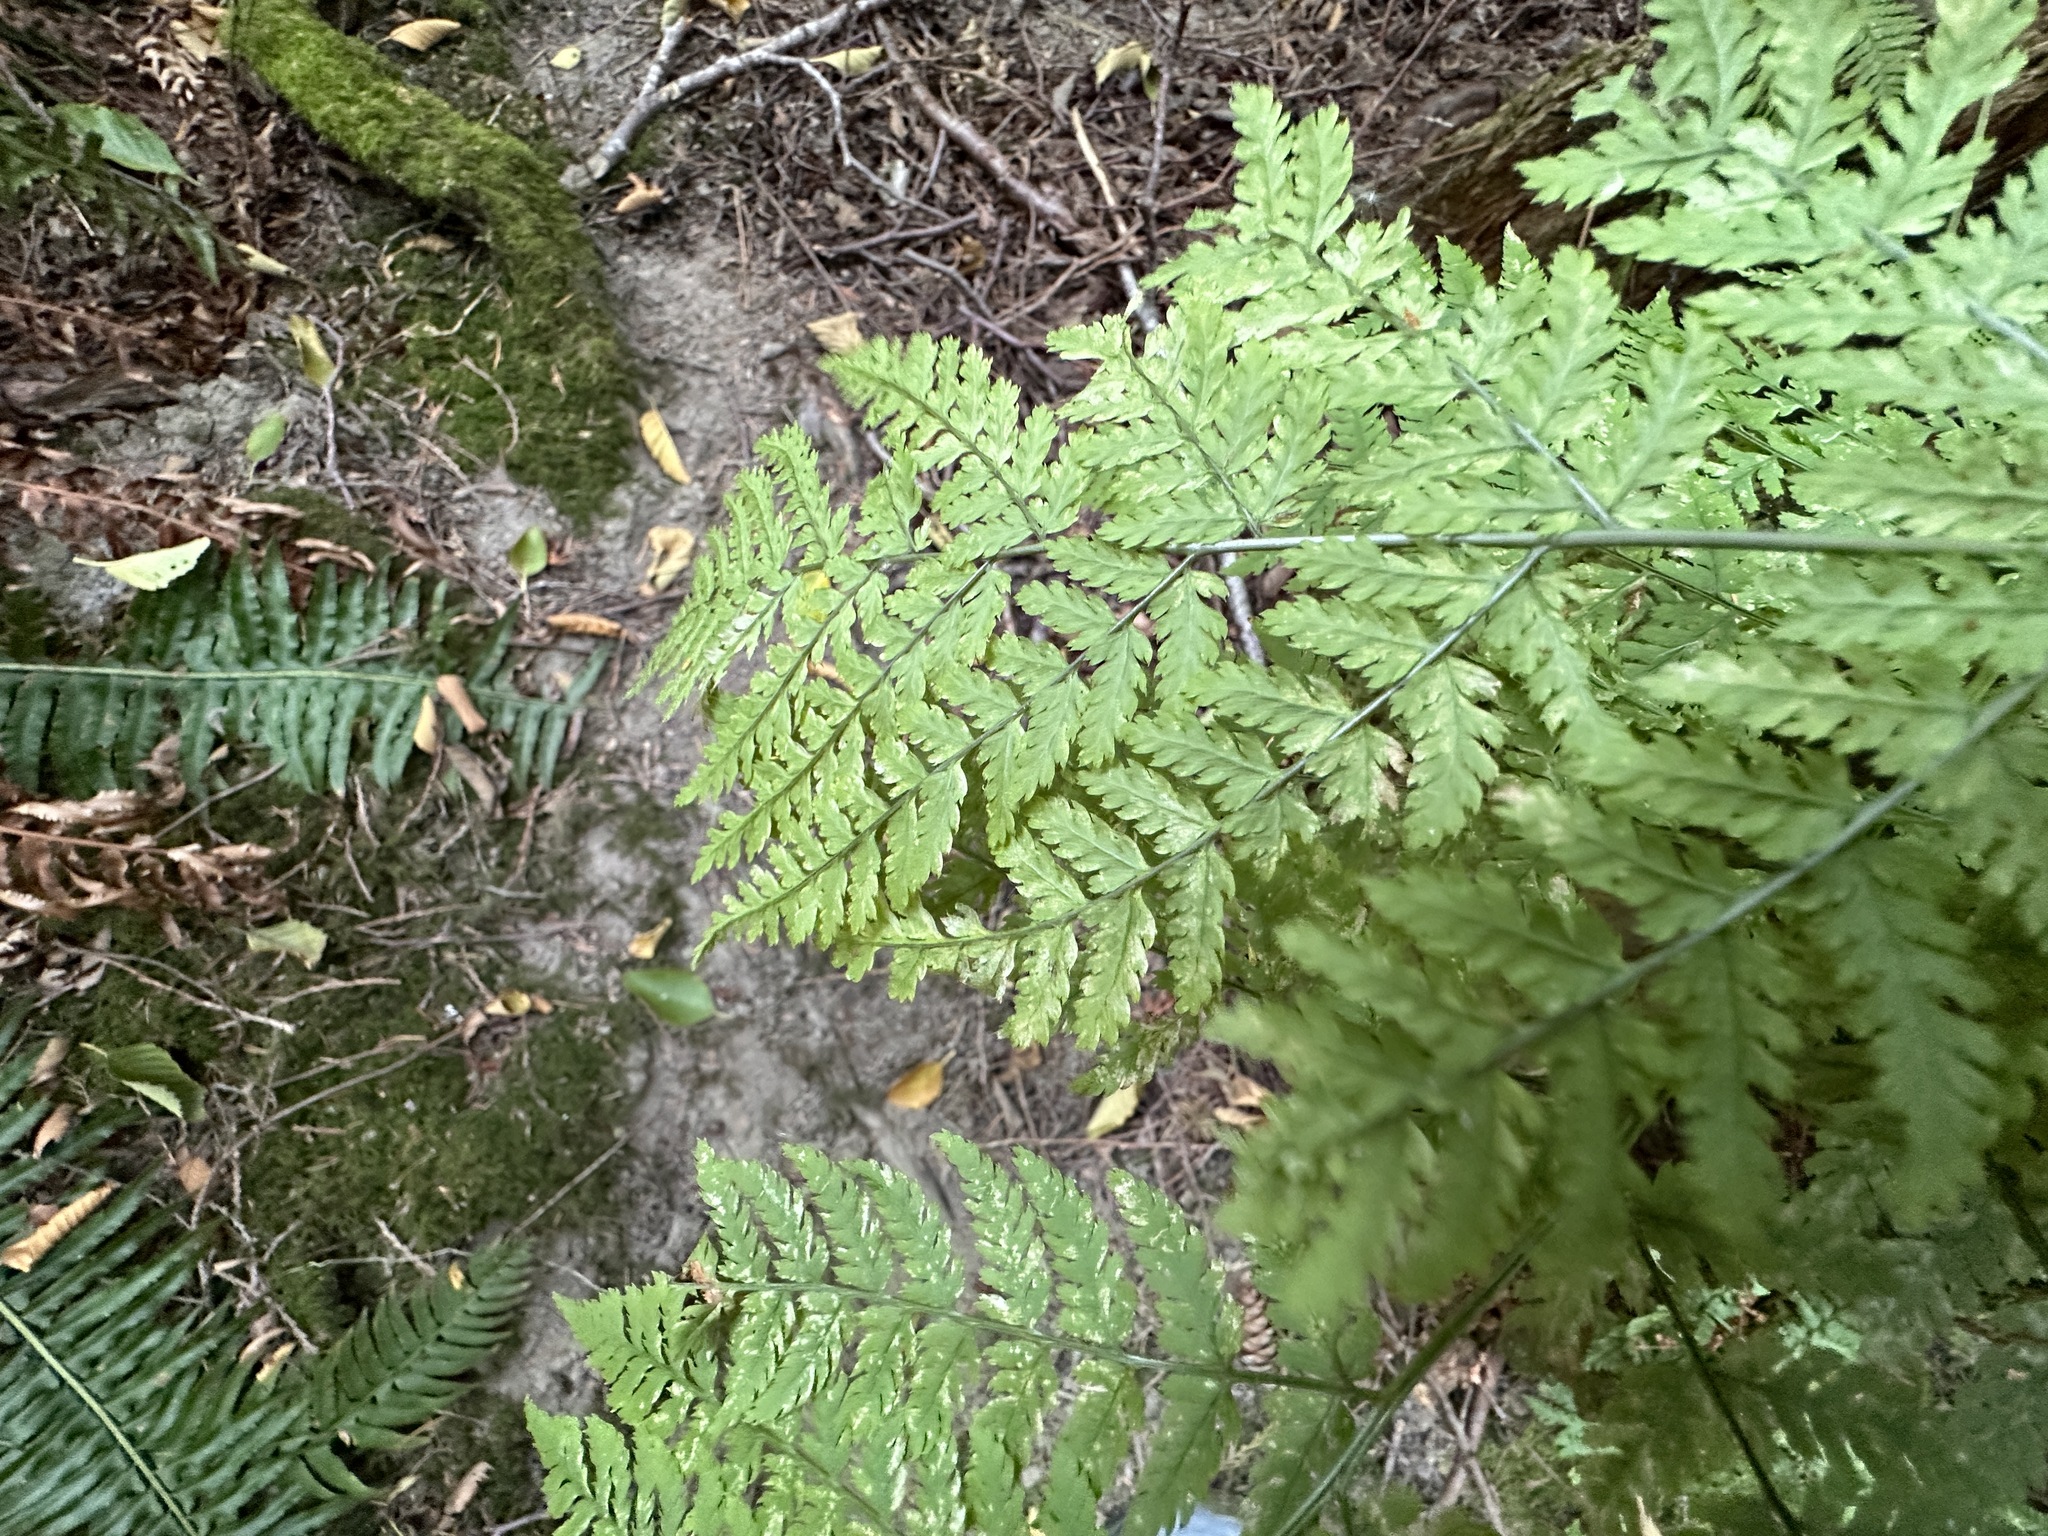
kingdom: Plantae
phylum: Tracheophyta
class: Polypodiopsida
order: Polypodiales
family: Dryopteridaceae
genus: Dryopteris
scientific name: Dryopteris expansa
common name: Northern buckler fern
